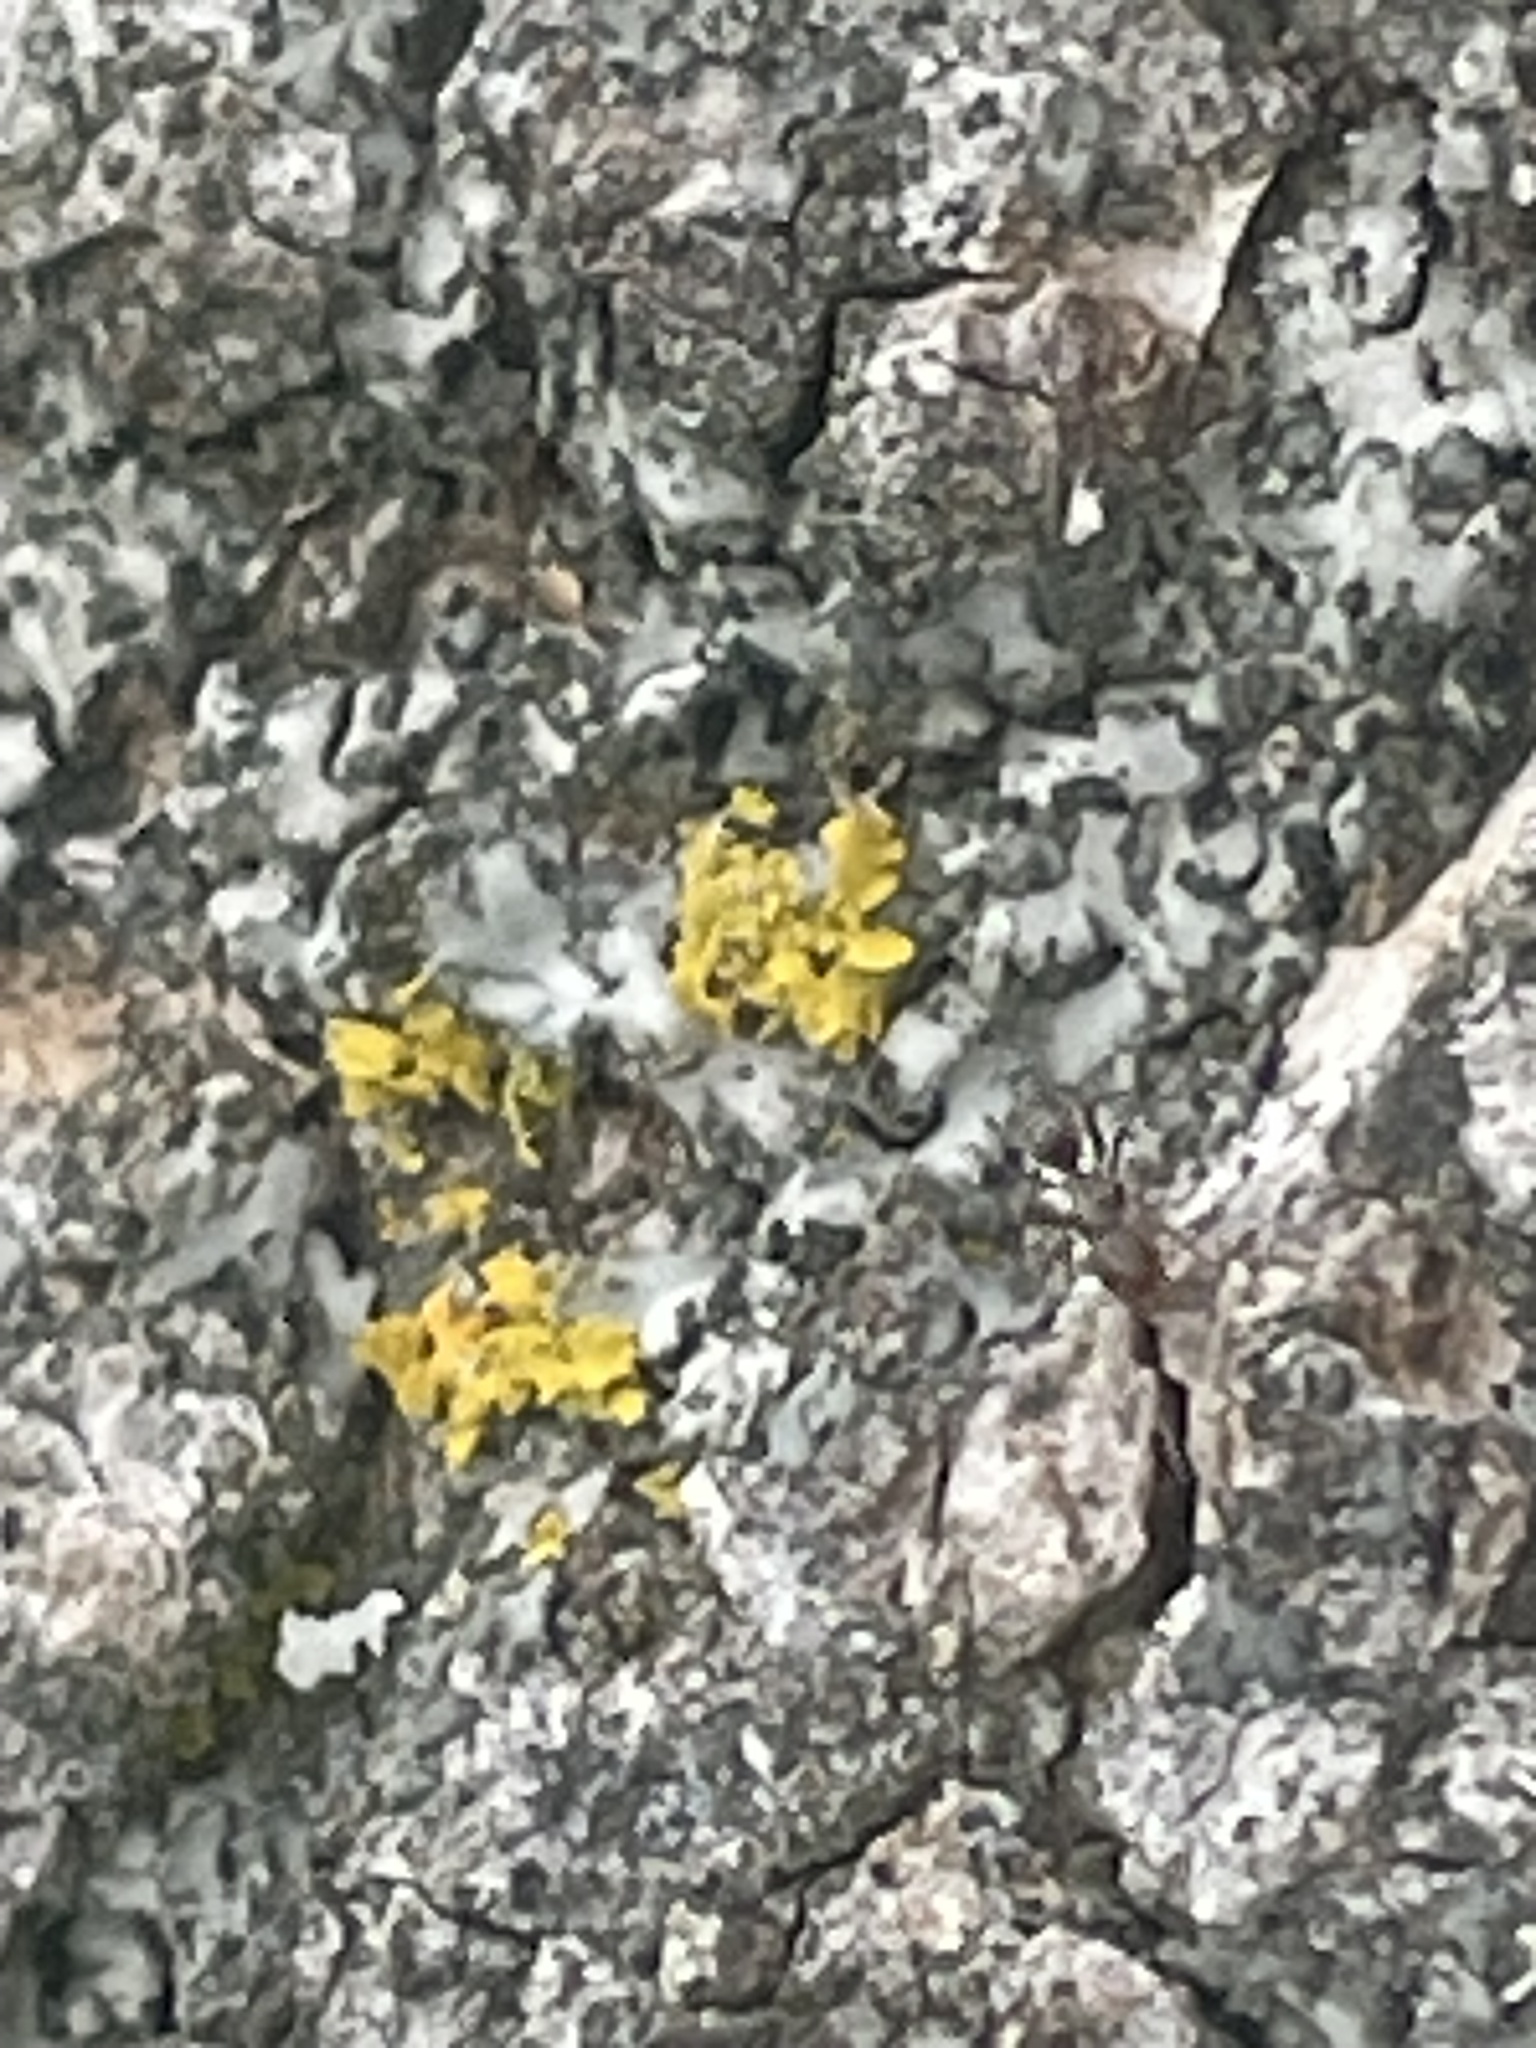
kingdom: Animalia
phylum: Arthropoda
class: Insecta
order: Hymenoptera
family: Formicidae
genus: Linepithema
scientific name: Linepithema humile
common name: Argentine ant
